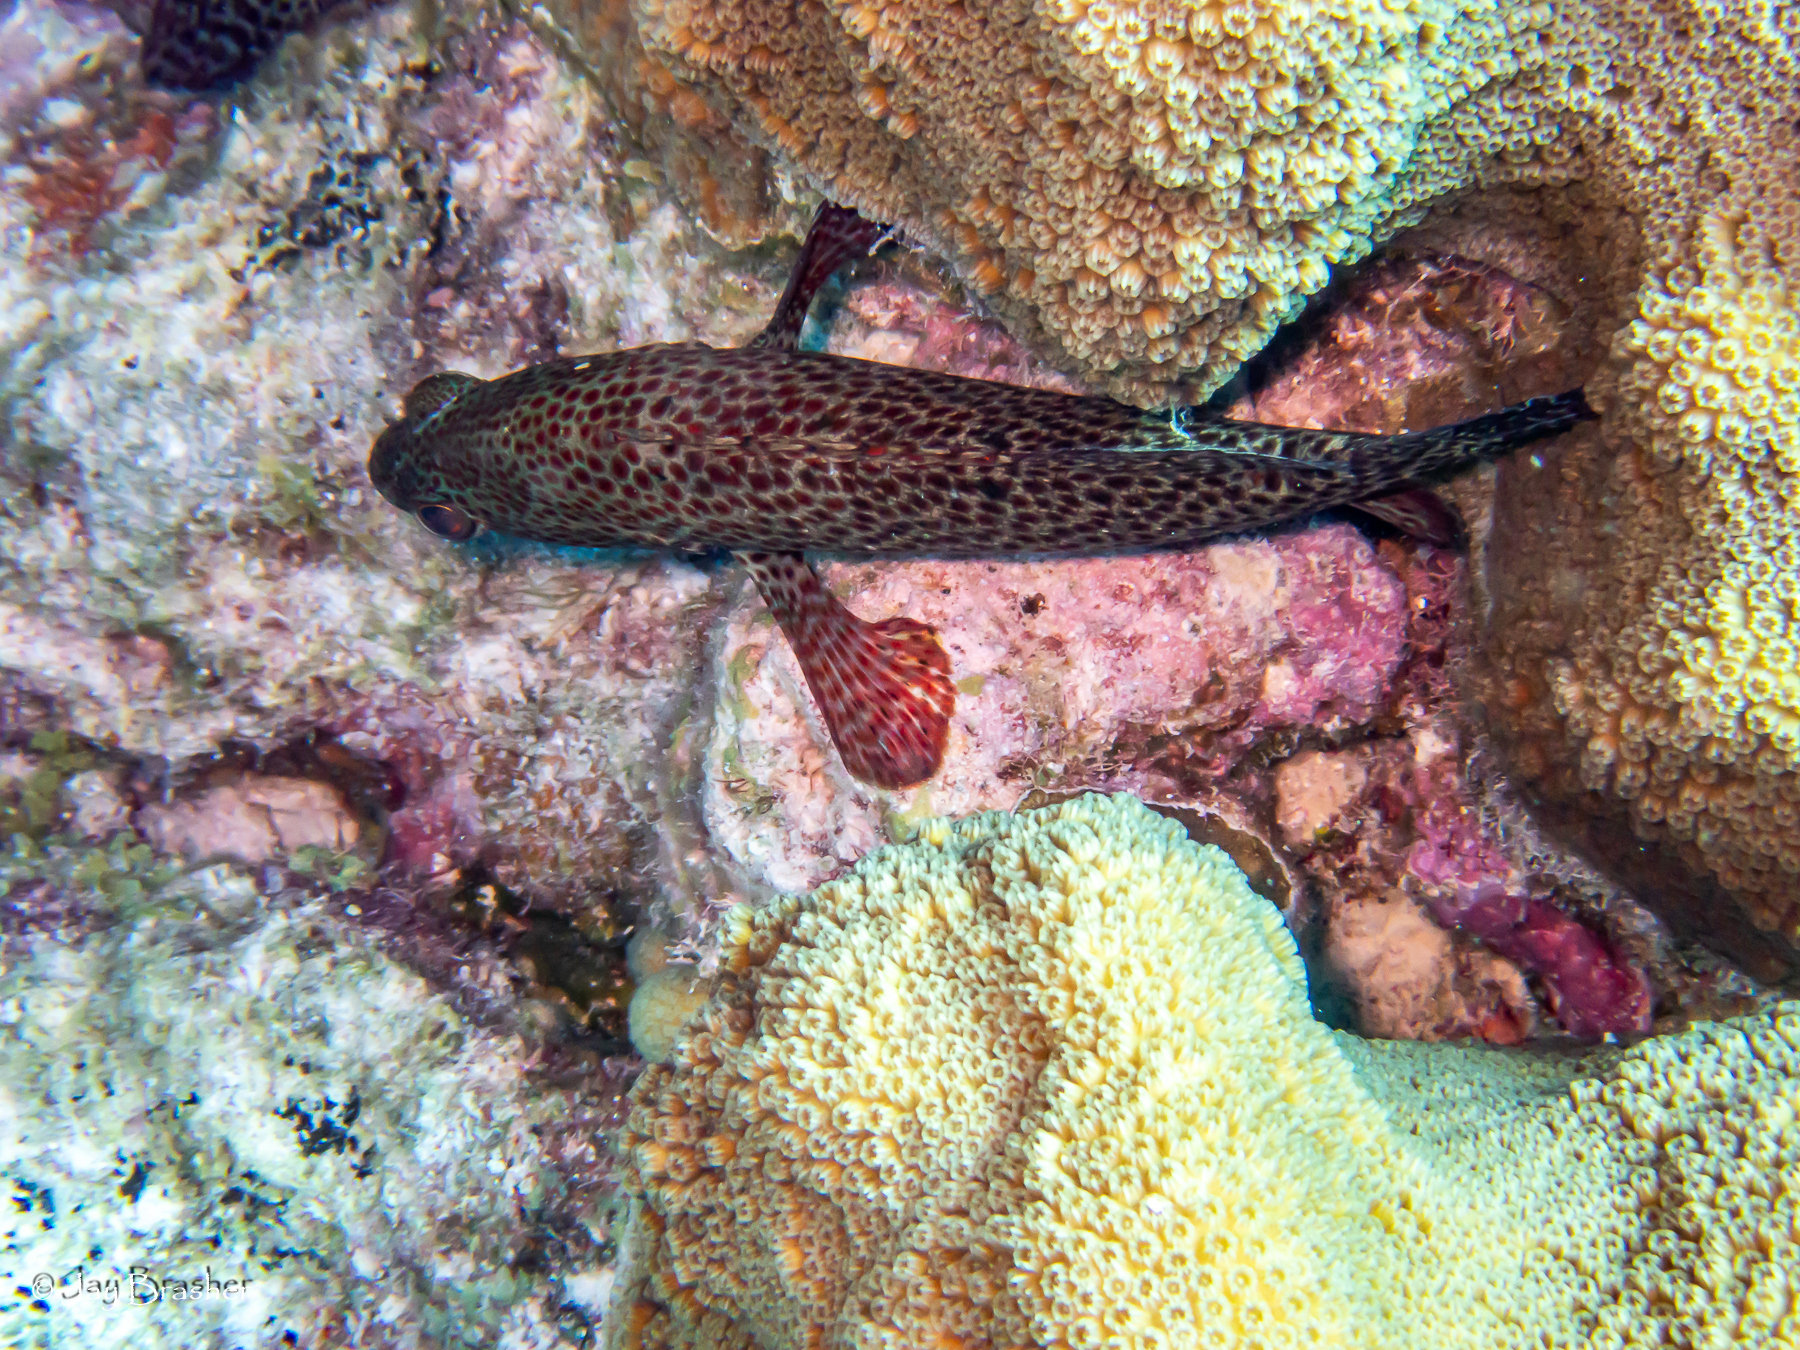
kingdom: Animalia
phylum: Chordata
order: Perciformes
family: Serranidae
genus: Cephalopholis
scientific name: Cephalopholis cruentata
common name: Graysby
